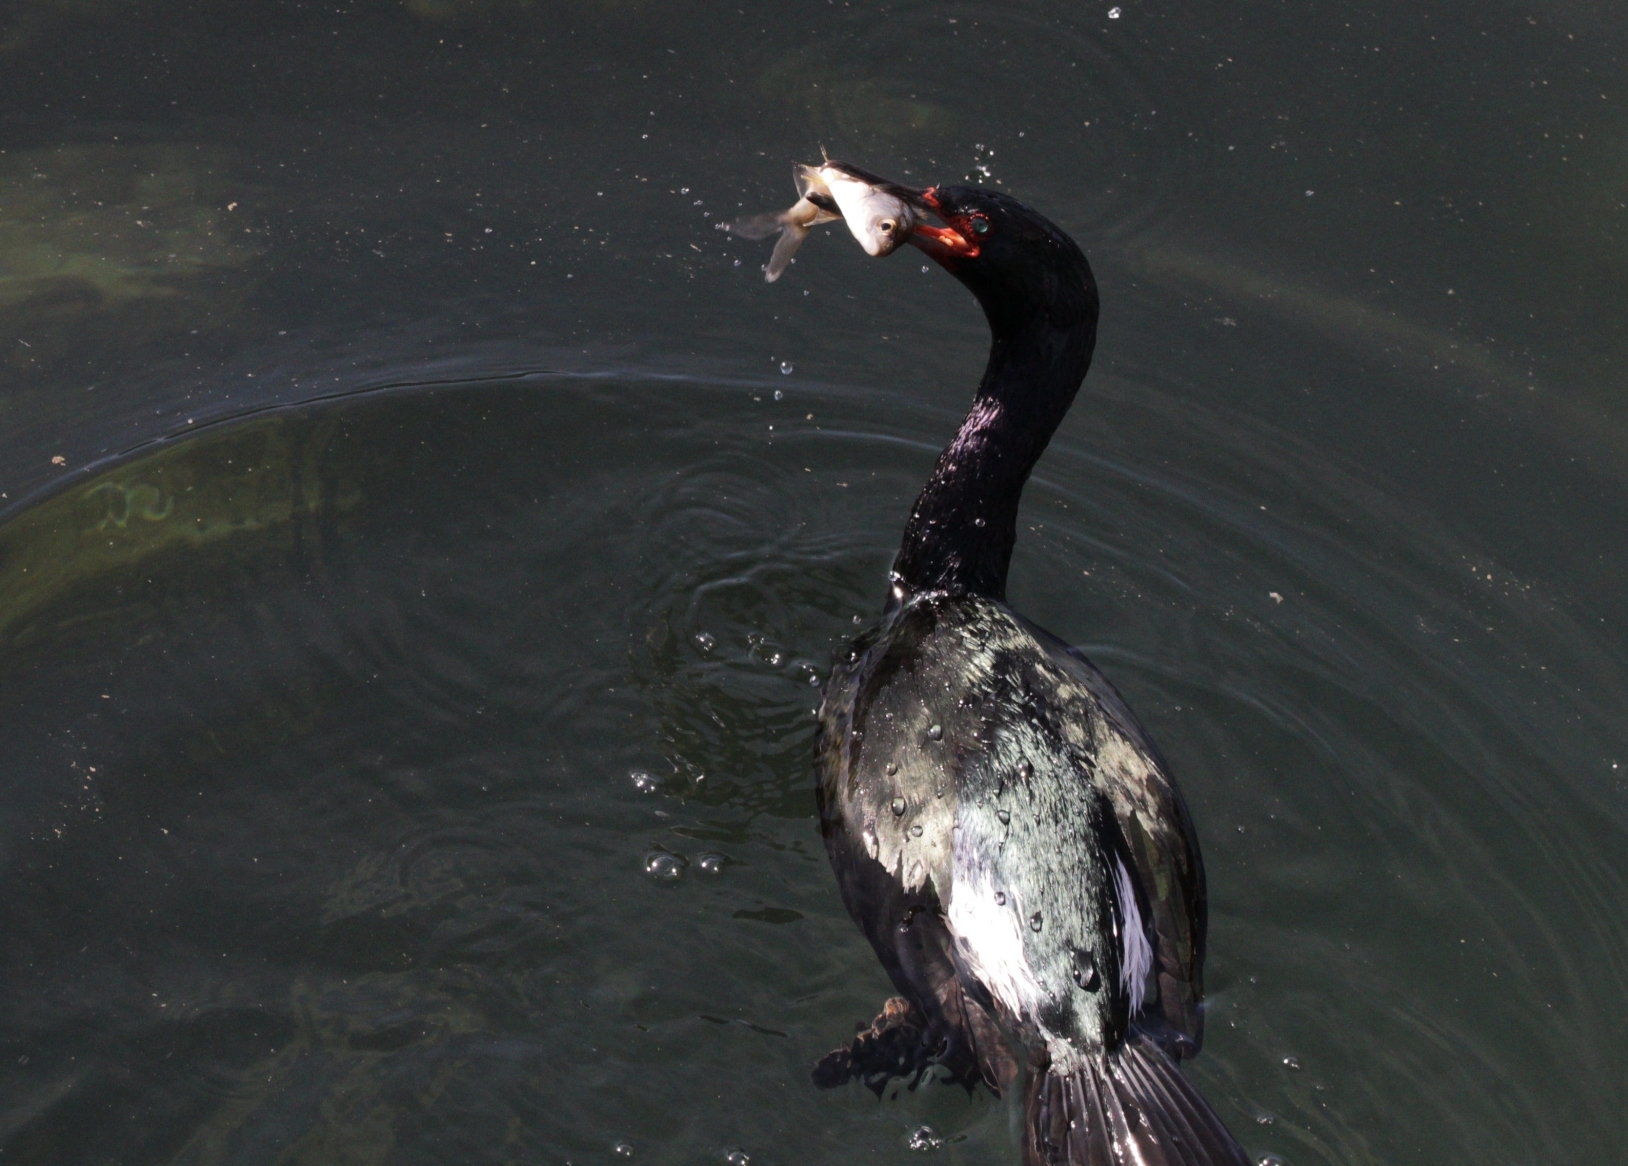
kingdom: Animalia
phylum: Chordata
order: Perciformes
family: Embiotocidae
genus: Cymatogaster
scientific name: Cymatogaster aggregata
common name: Shiner perch
